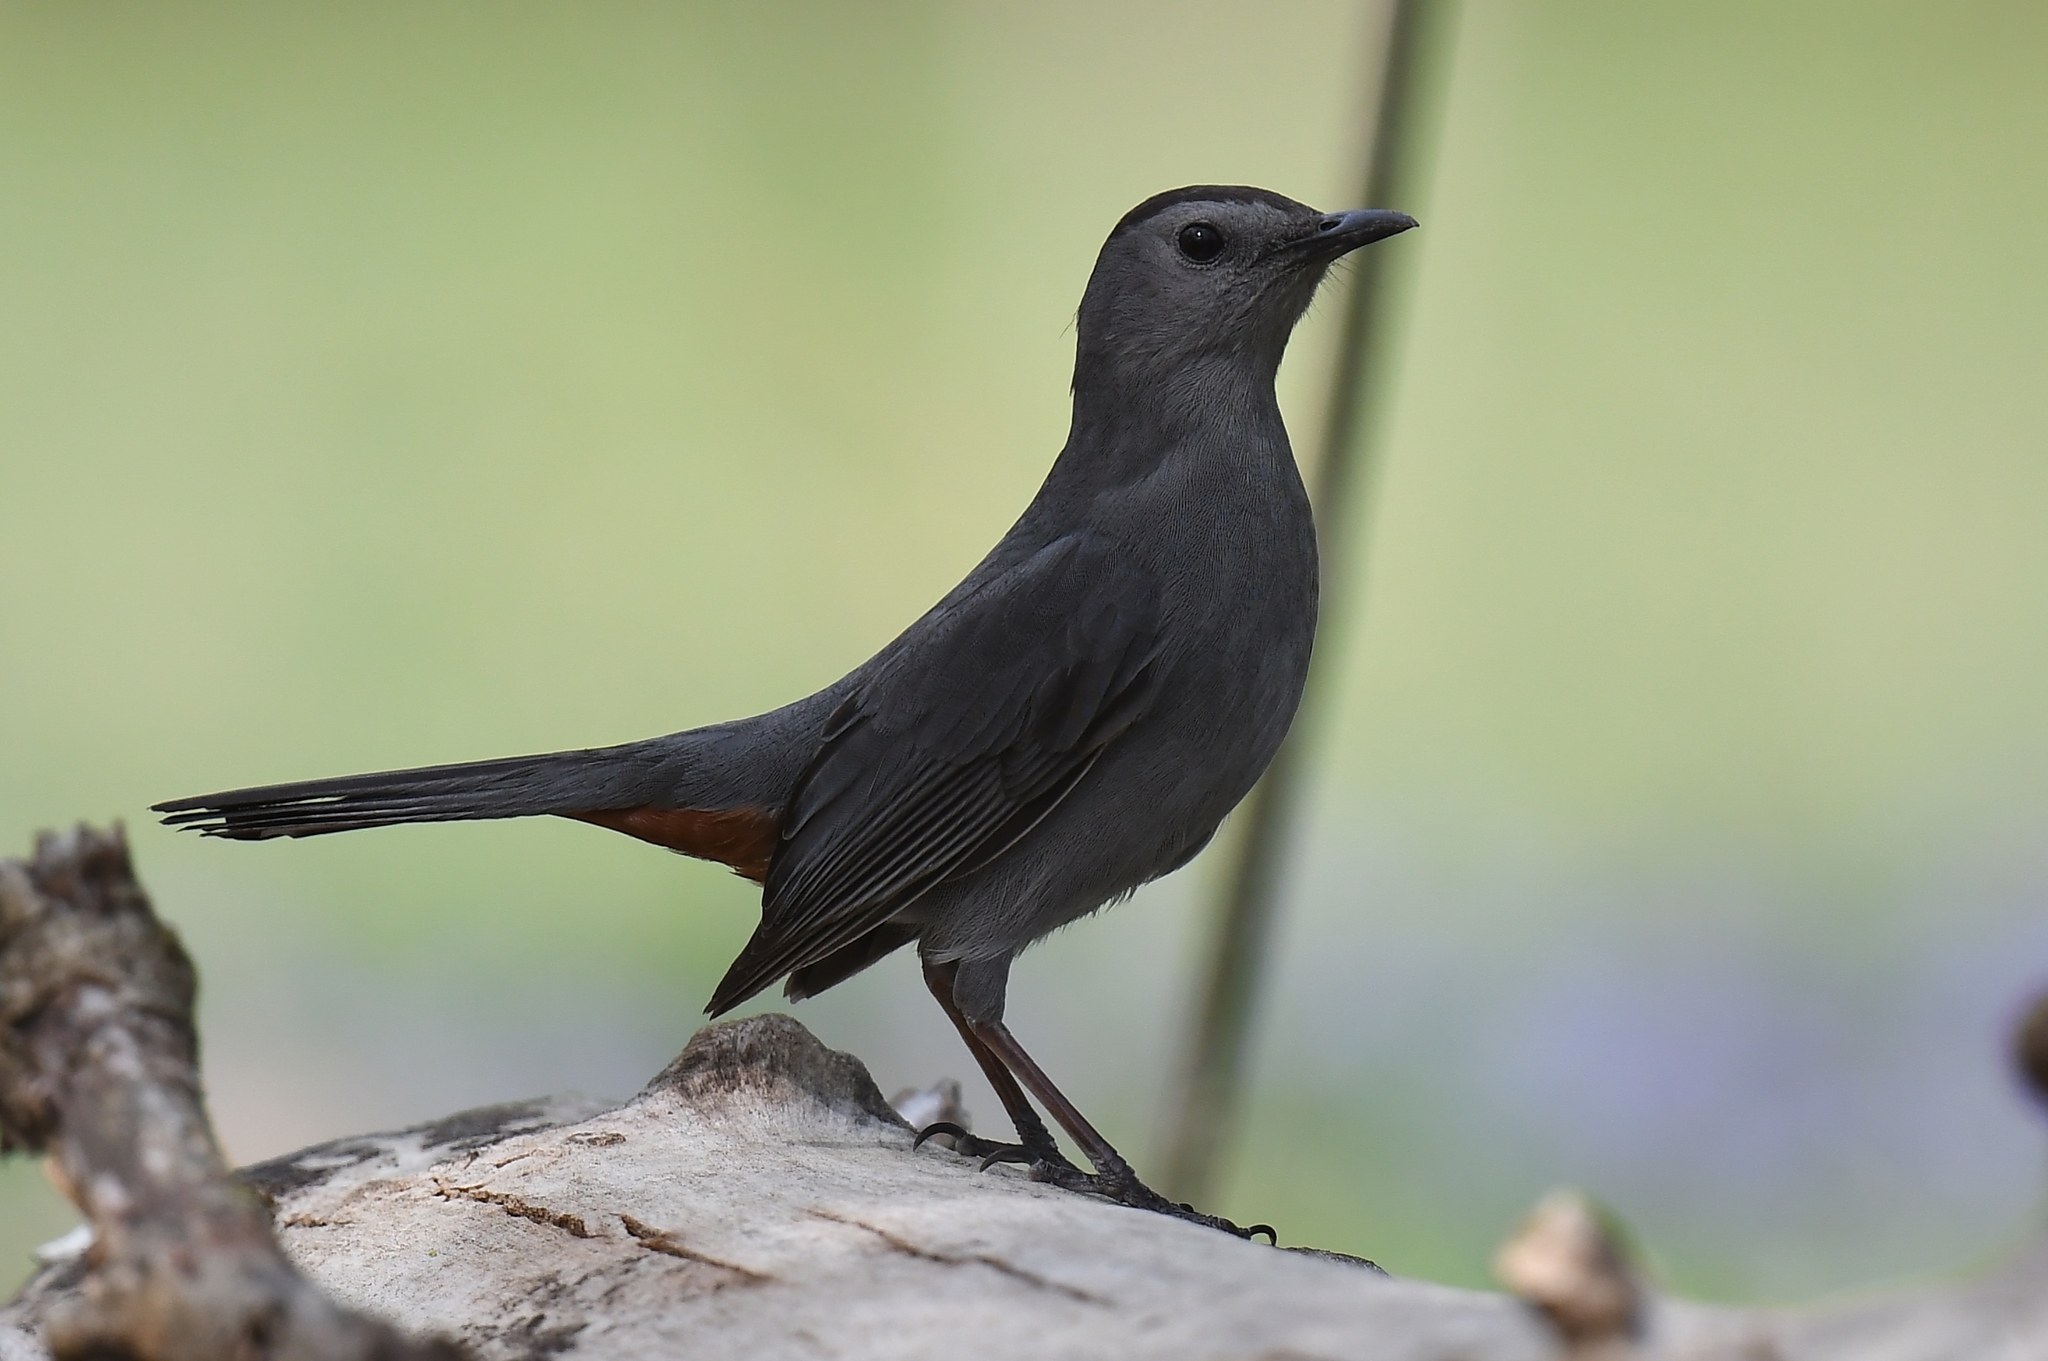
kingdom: Animalia
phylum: Chordata
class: Aves
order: Passeriformes
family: Mimidae
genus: Dumetella
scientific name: Dumetella carolinensis
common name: Gray catbird
